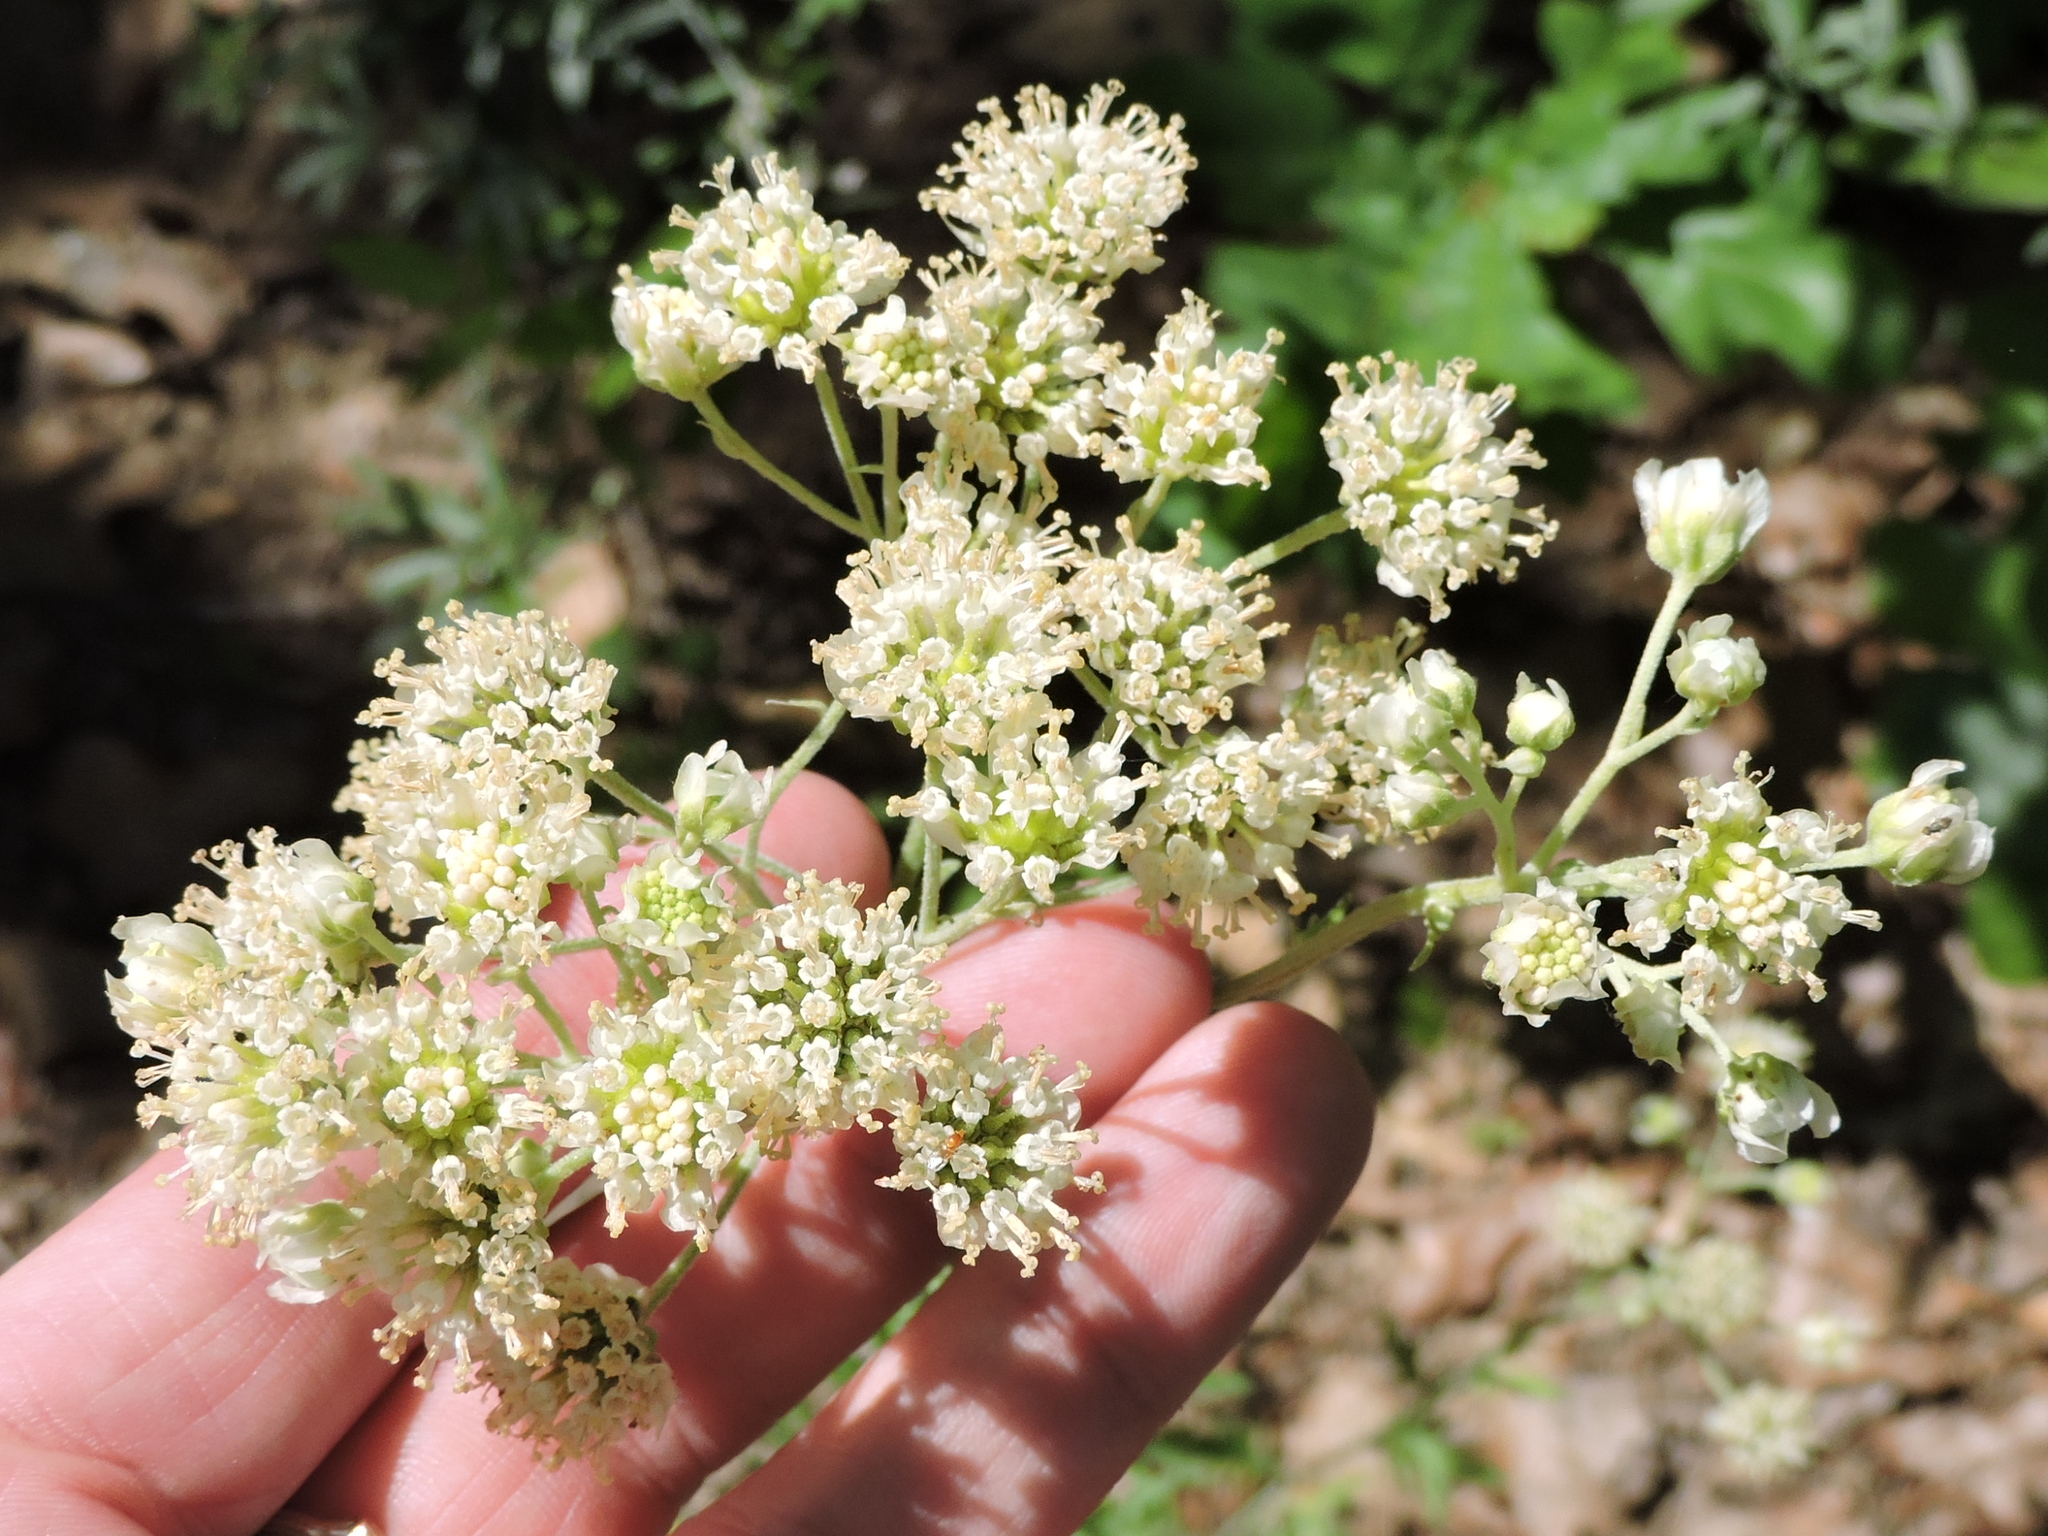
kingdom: Plantae
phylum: Tracheophyta
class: Magnoliopsida
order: Asterales
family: Asteraceae
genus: Hymenopappus
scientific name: Hymenopappus artemisiifolius
